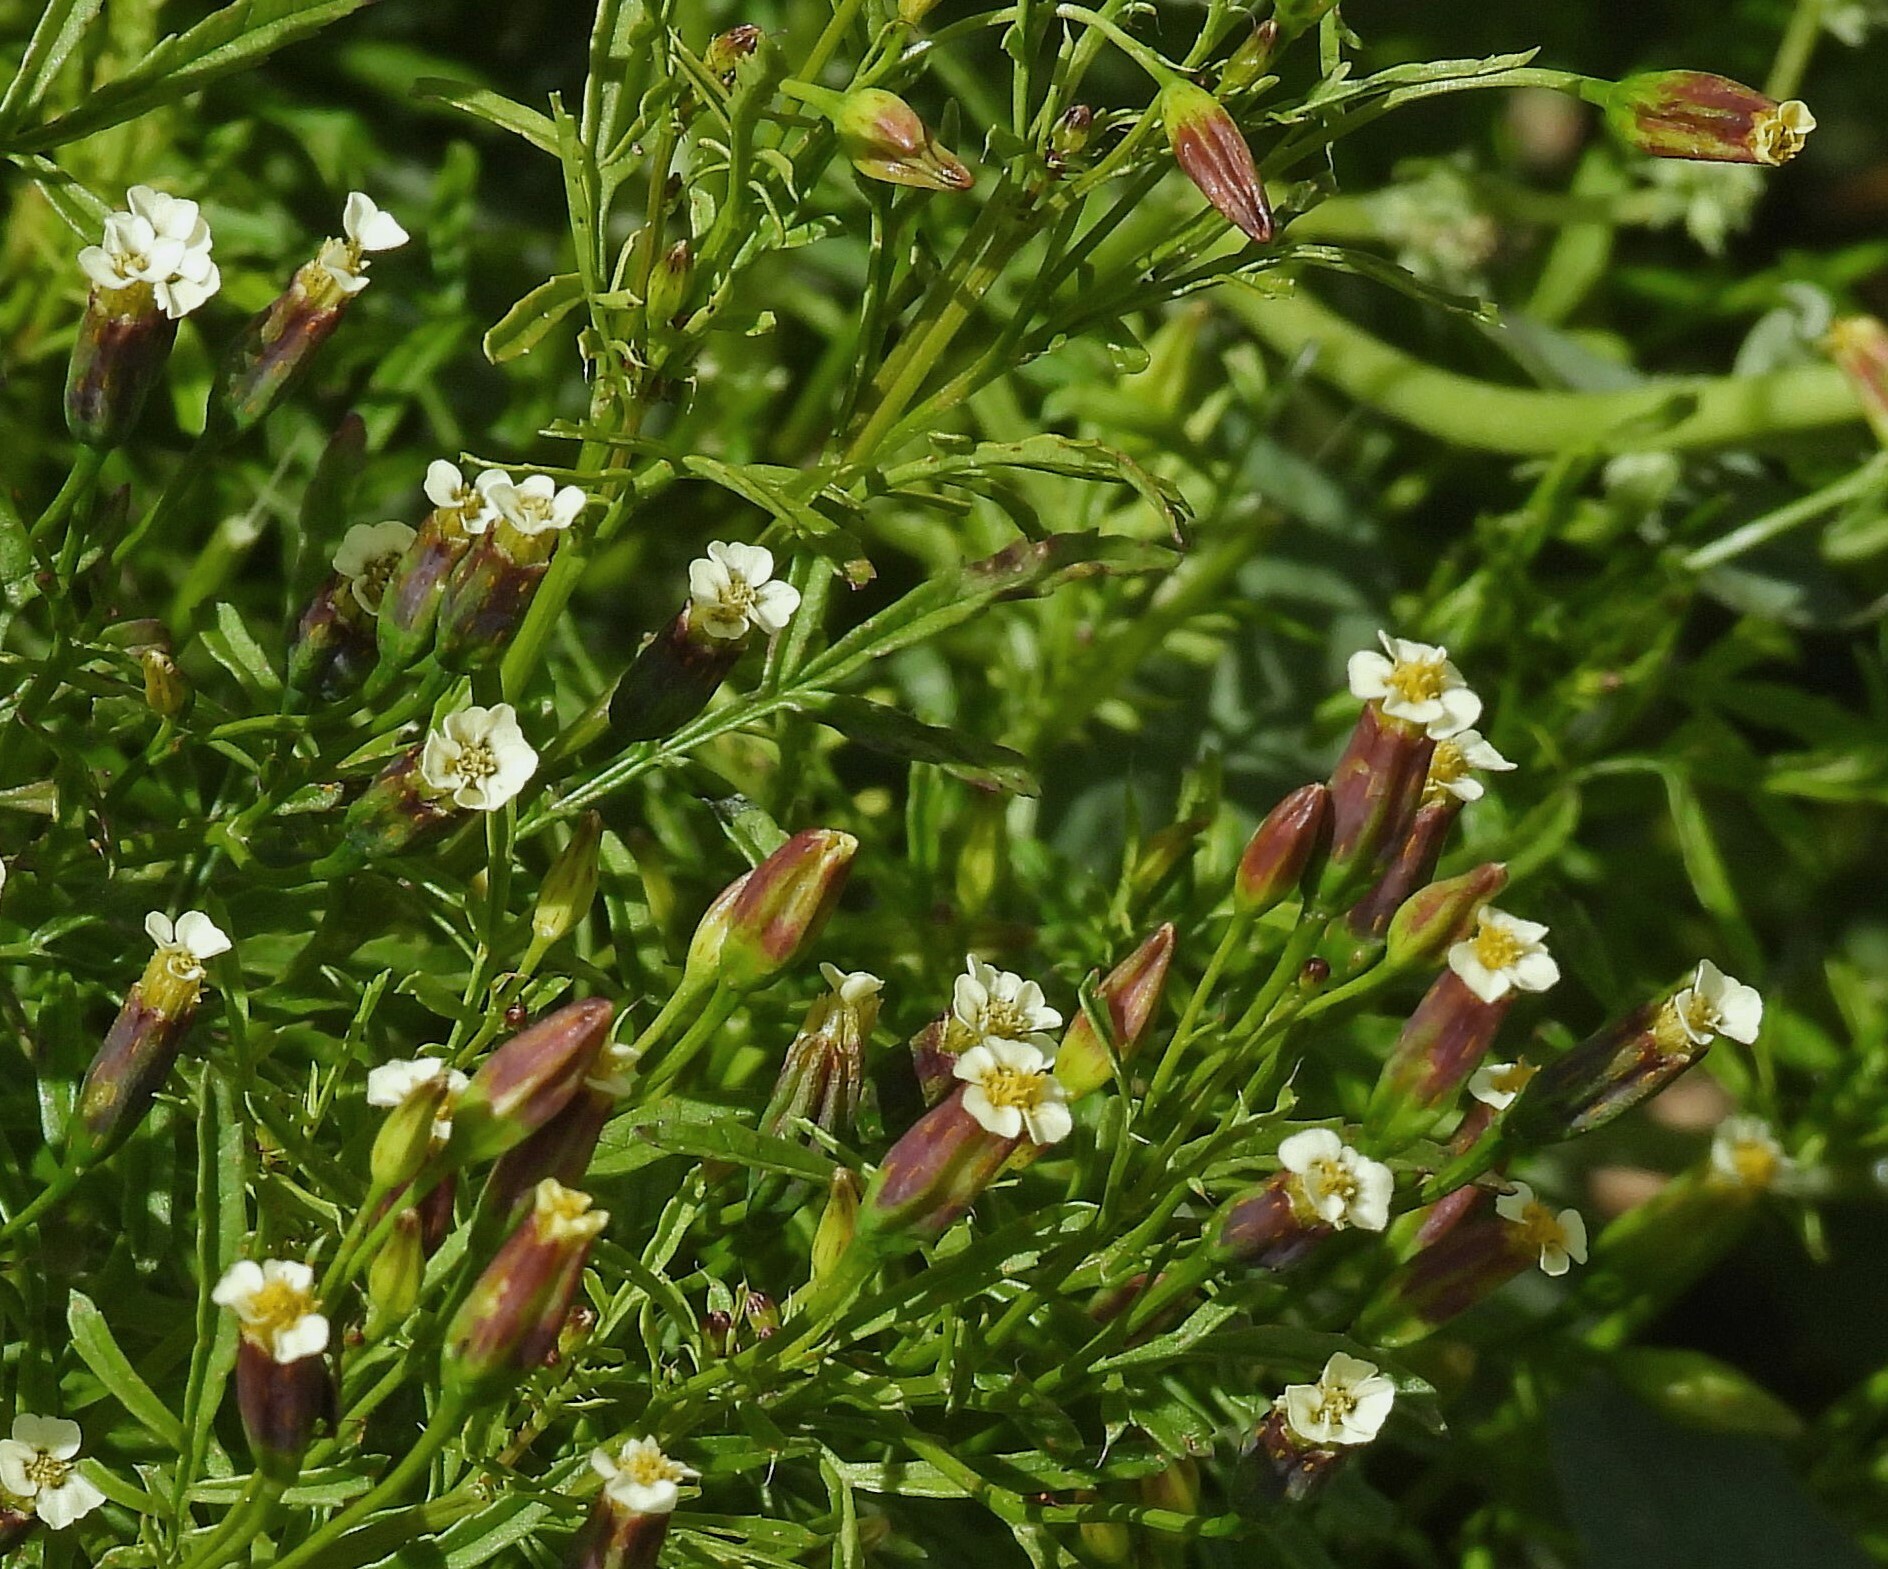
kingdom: Plantae
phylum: Tracheophyta
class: Magnoliopsida
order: Asterales
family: Asteraceae
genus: Tagetes
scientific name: Tagetes imbricata
